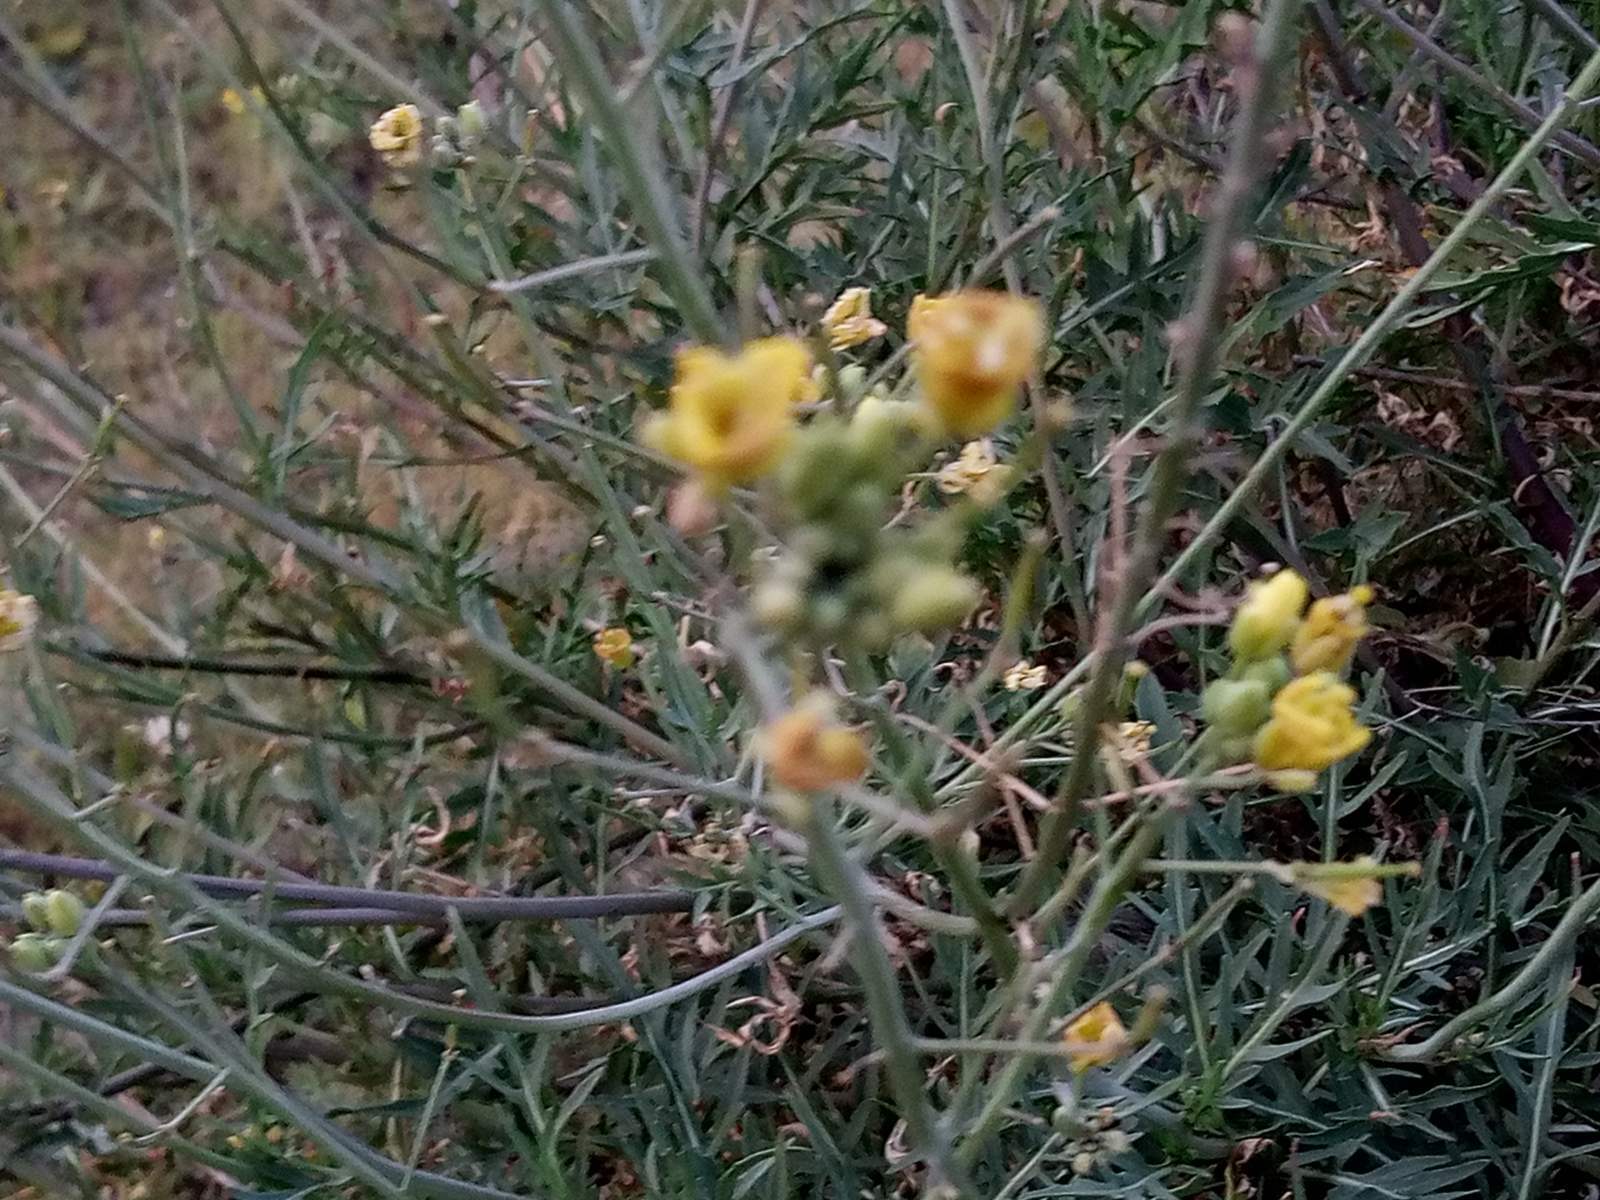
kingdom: Plantae
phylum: Tracheophyta
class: Magnoliopsida
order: Brassicales
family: Brassicaceae
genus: Diplotaxis
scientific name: Diplotaxis tenuifolia
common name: Perennial wall-rocket
